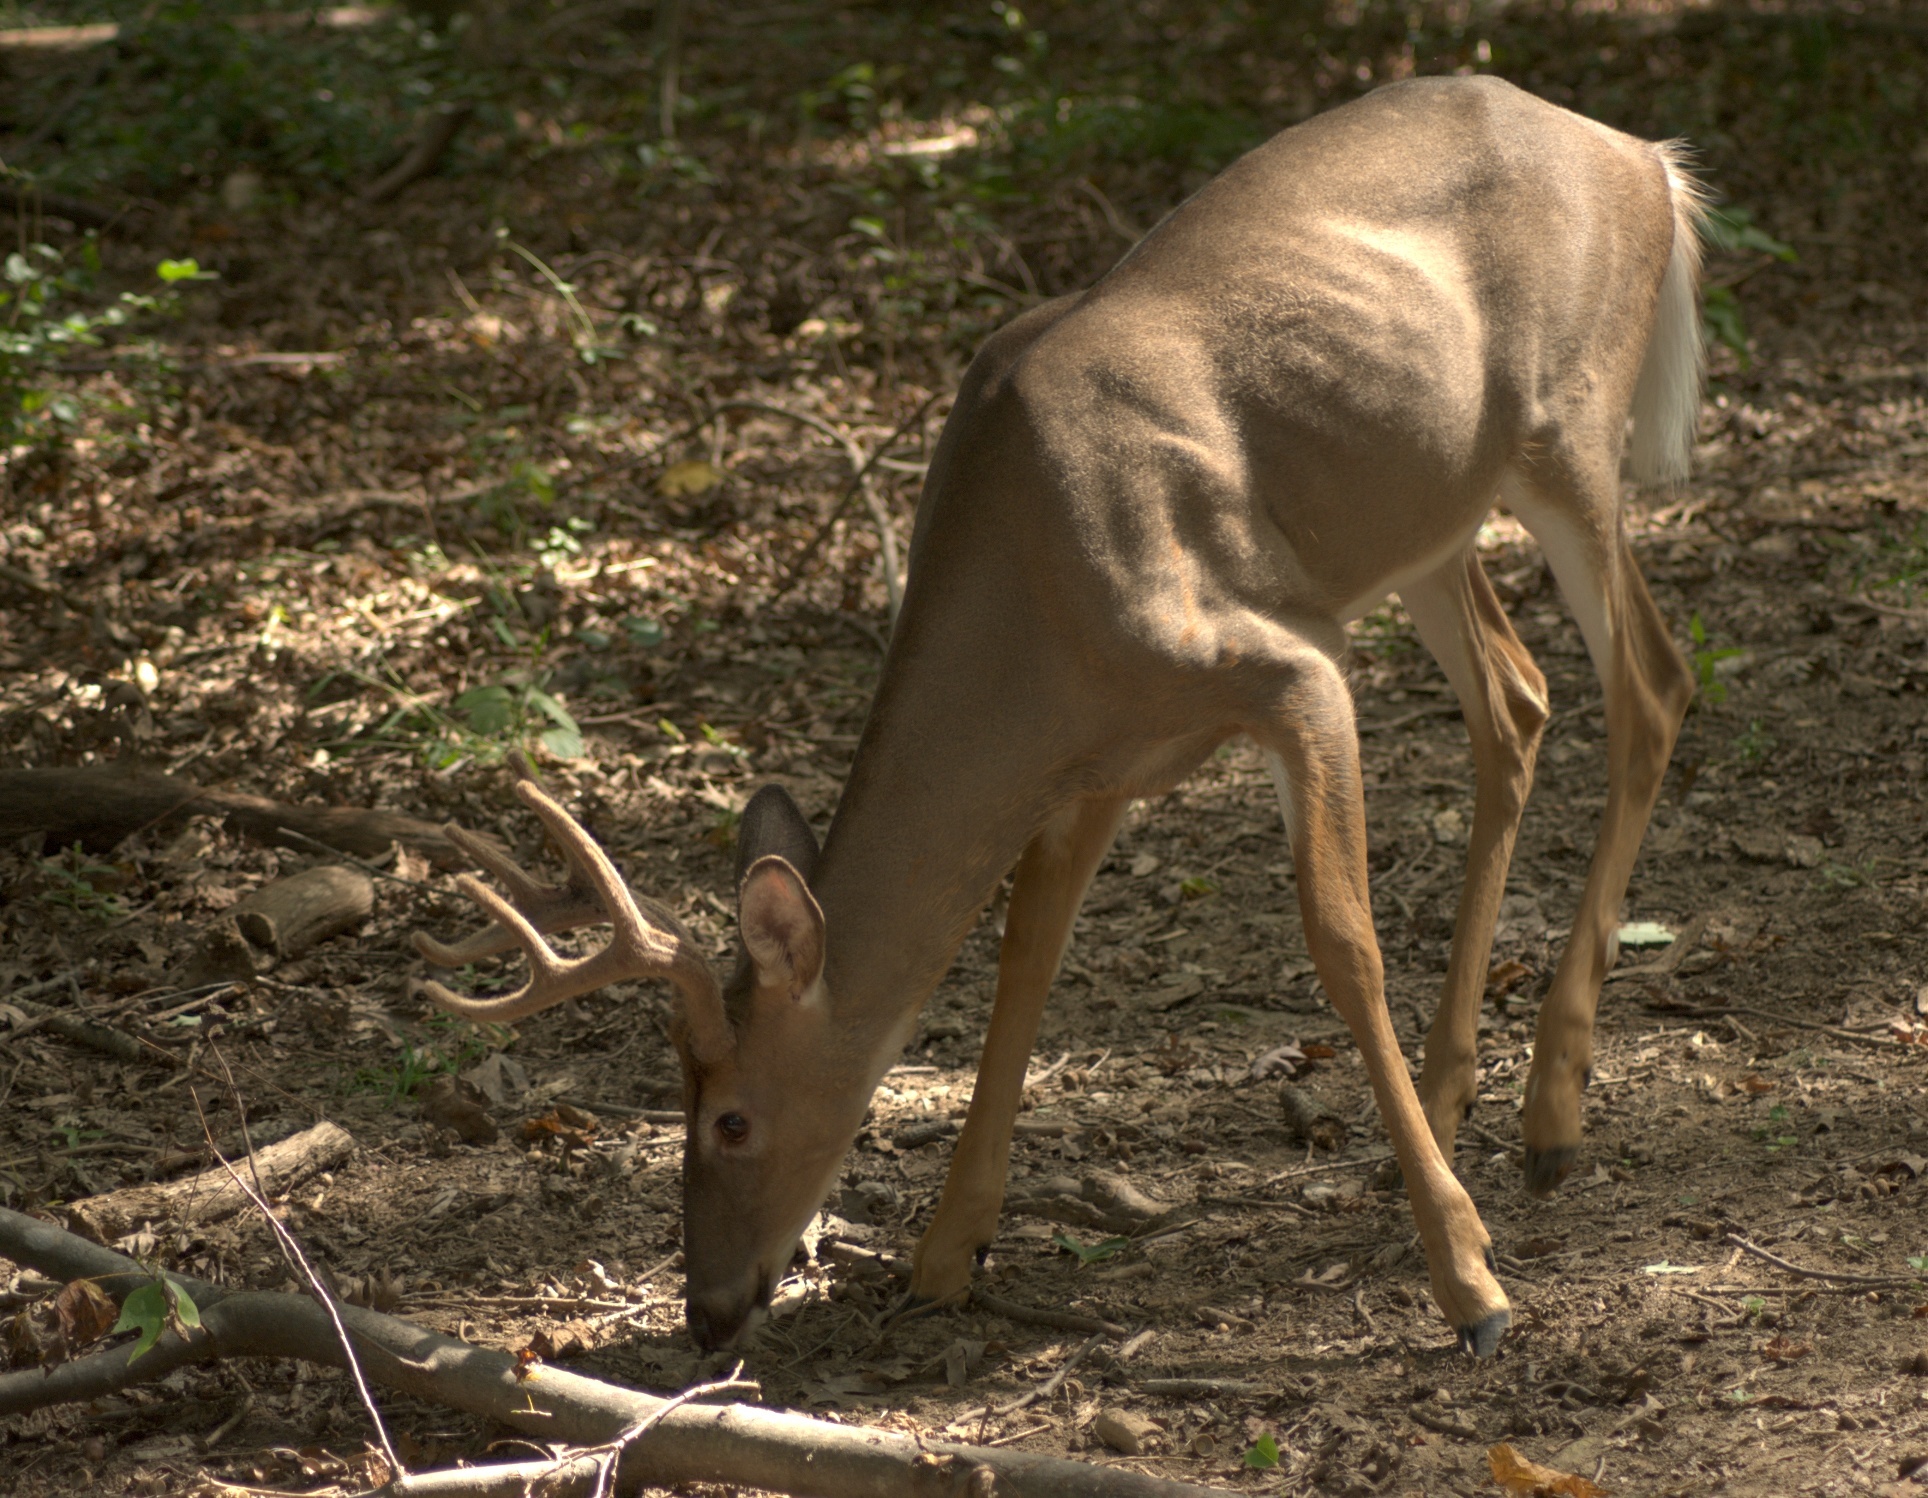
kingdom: Animalia
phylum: Chordata
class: Mammalia
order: Artiodactyla
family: Cervidae
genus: Odocoileus
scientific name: Odocoileus virginianus
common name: White-tailed deer
